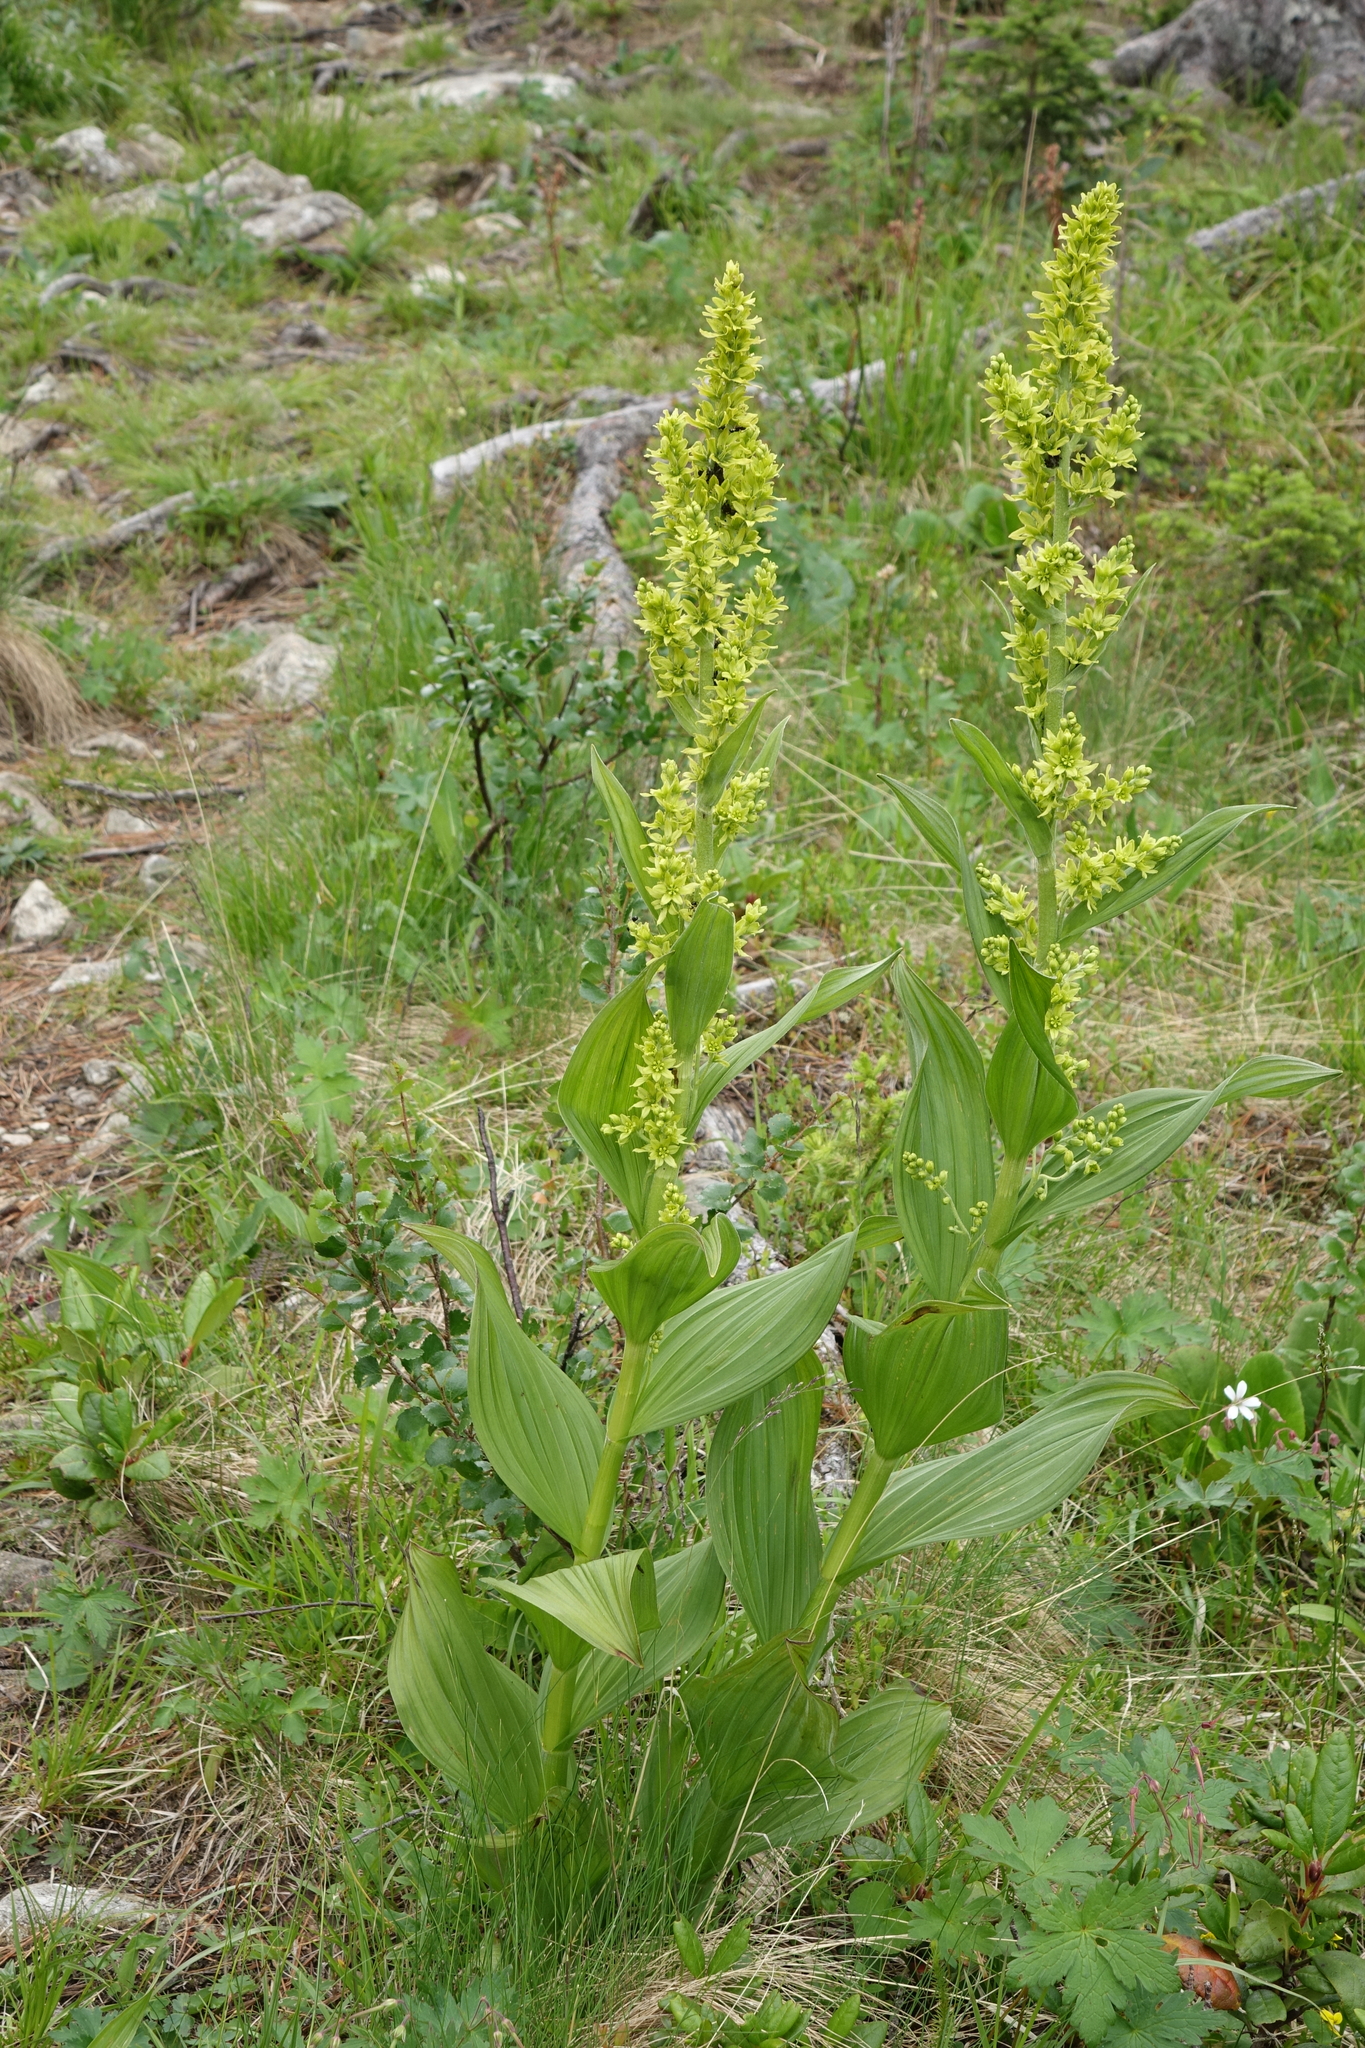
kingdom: Plantae
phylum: Tracheophyta
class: Liliopsida
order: Liliales
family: Melanthiaceae
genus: Veratrum
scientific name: Veratrum lobelianum
